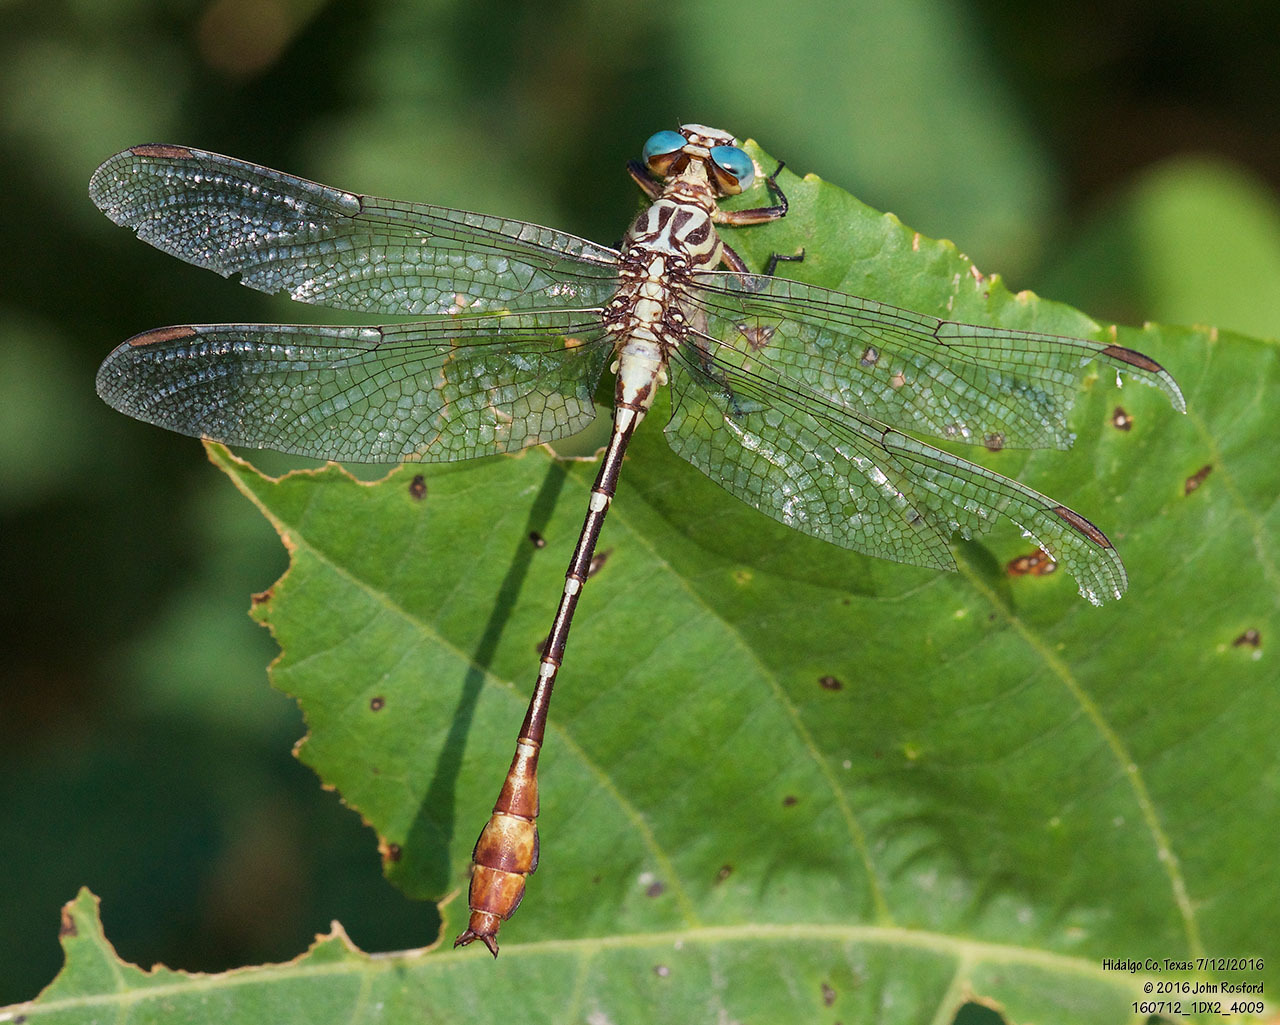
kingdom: Animalia
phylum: Arthropoda
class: Insecta
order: Odonata
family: Gomphidae
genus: Stylurus
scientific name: Stylurus plagiatus
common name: Russet-tipped clubtail
